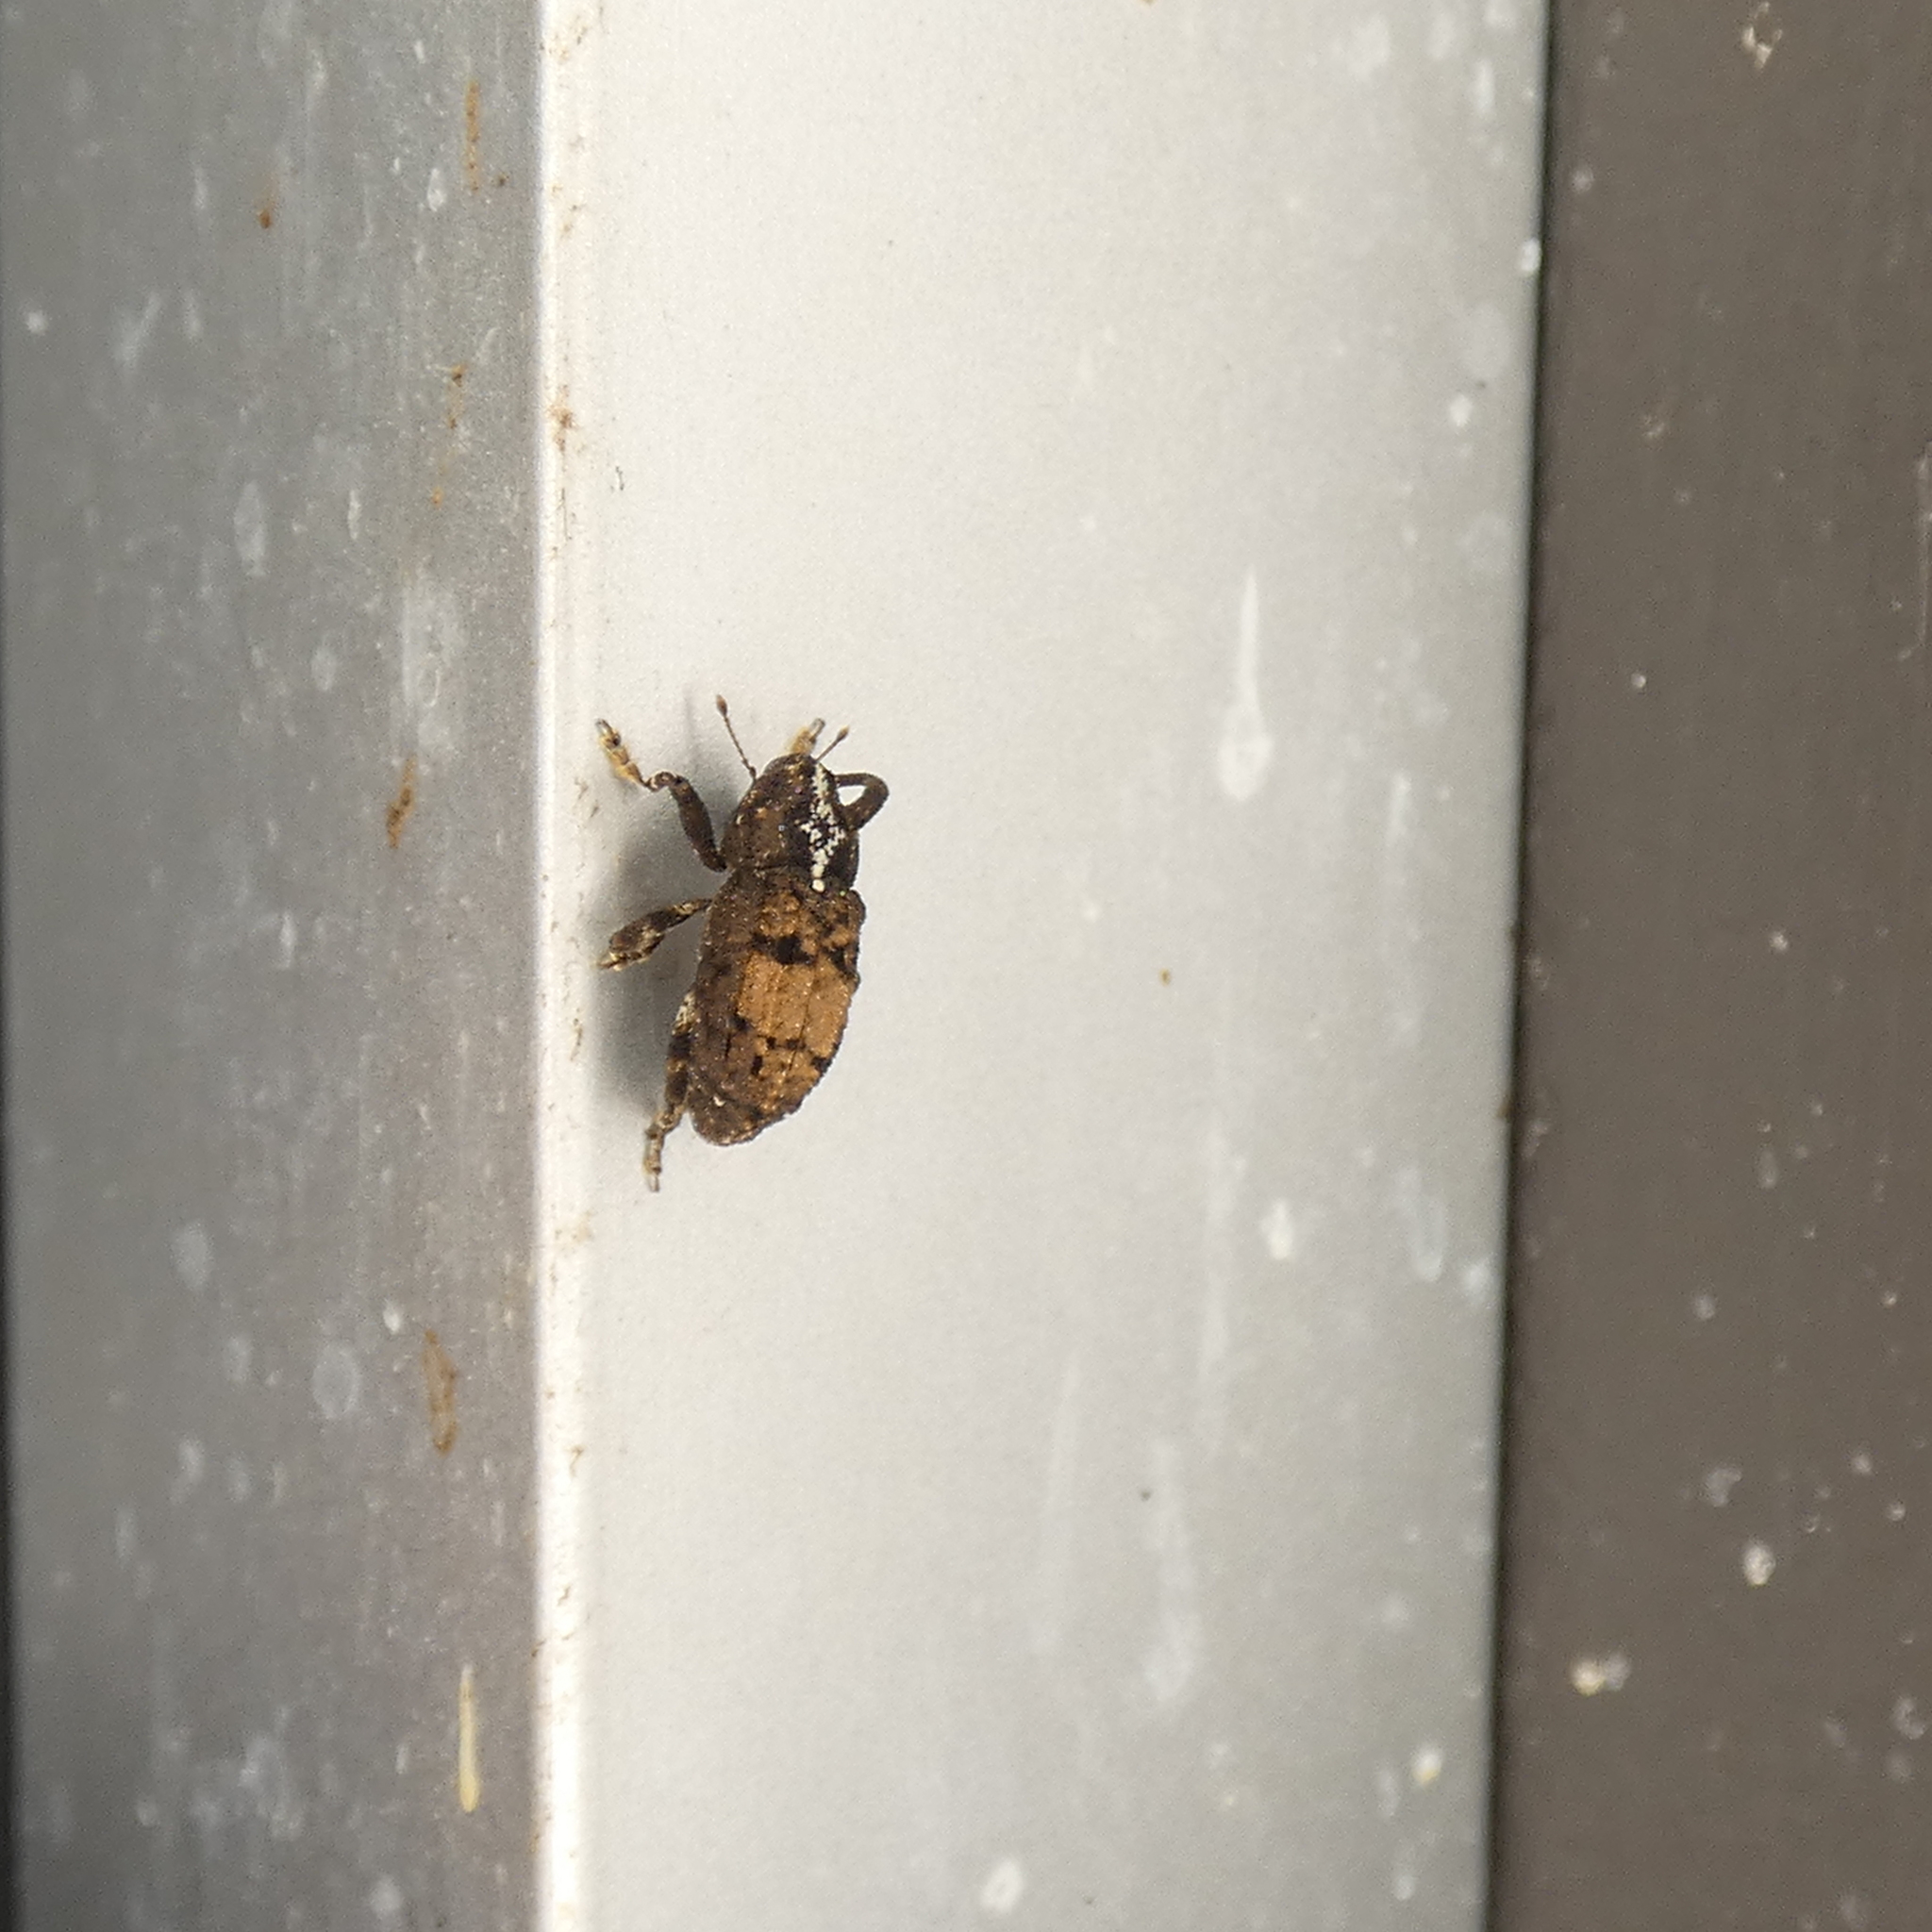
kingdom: Animalia
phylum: Arthropoda
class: Insecta
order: Coleoptera
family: Curculionidae
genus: Cophes
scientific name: Cophes obtentus
